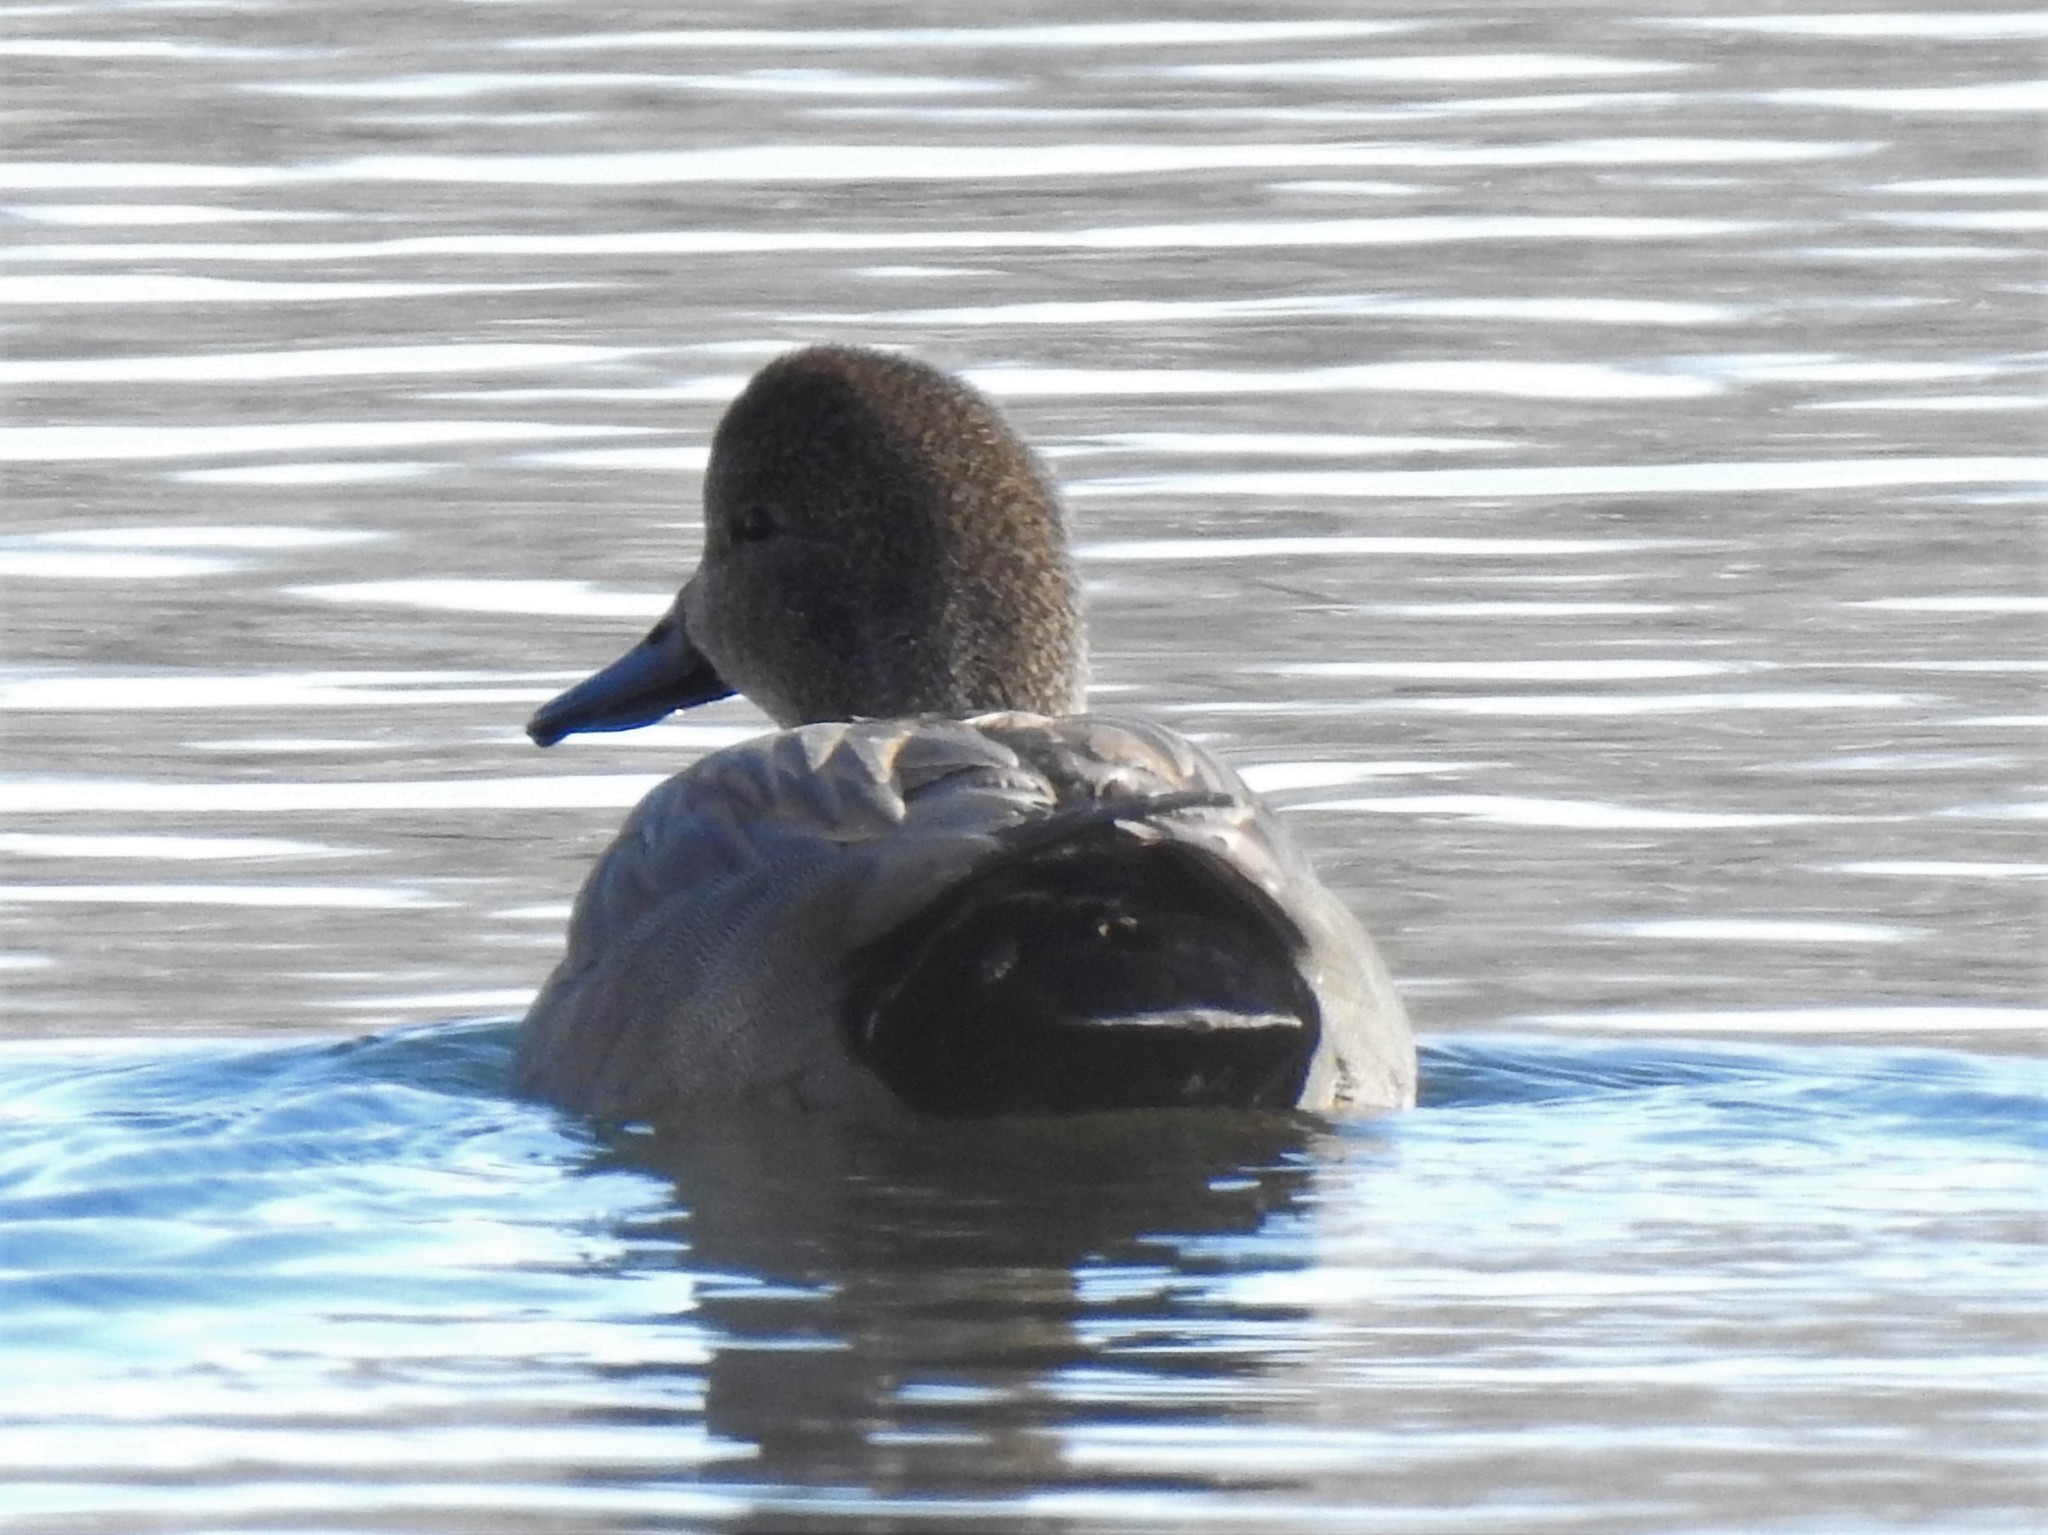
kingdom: Animalia
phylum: Chordata
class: Aves
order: Anseriformes
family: Anatidae
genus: Mareca
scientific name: Mareca strepera
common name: Gadwall
